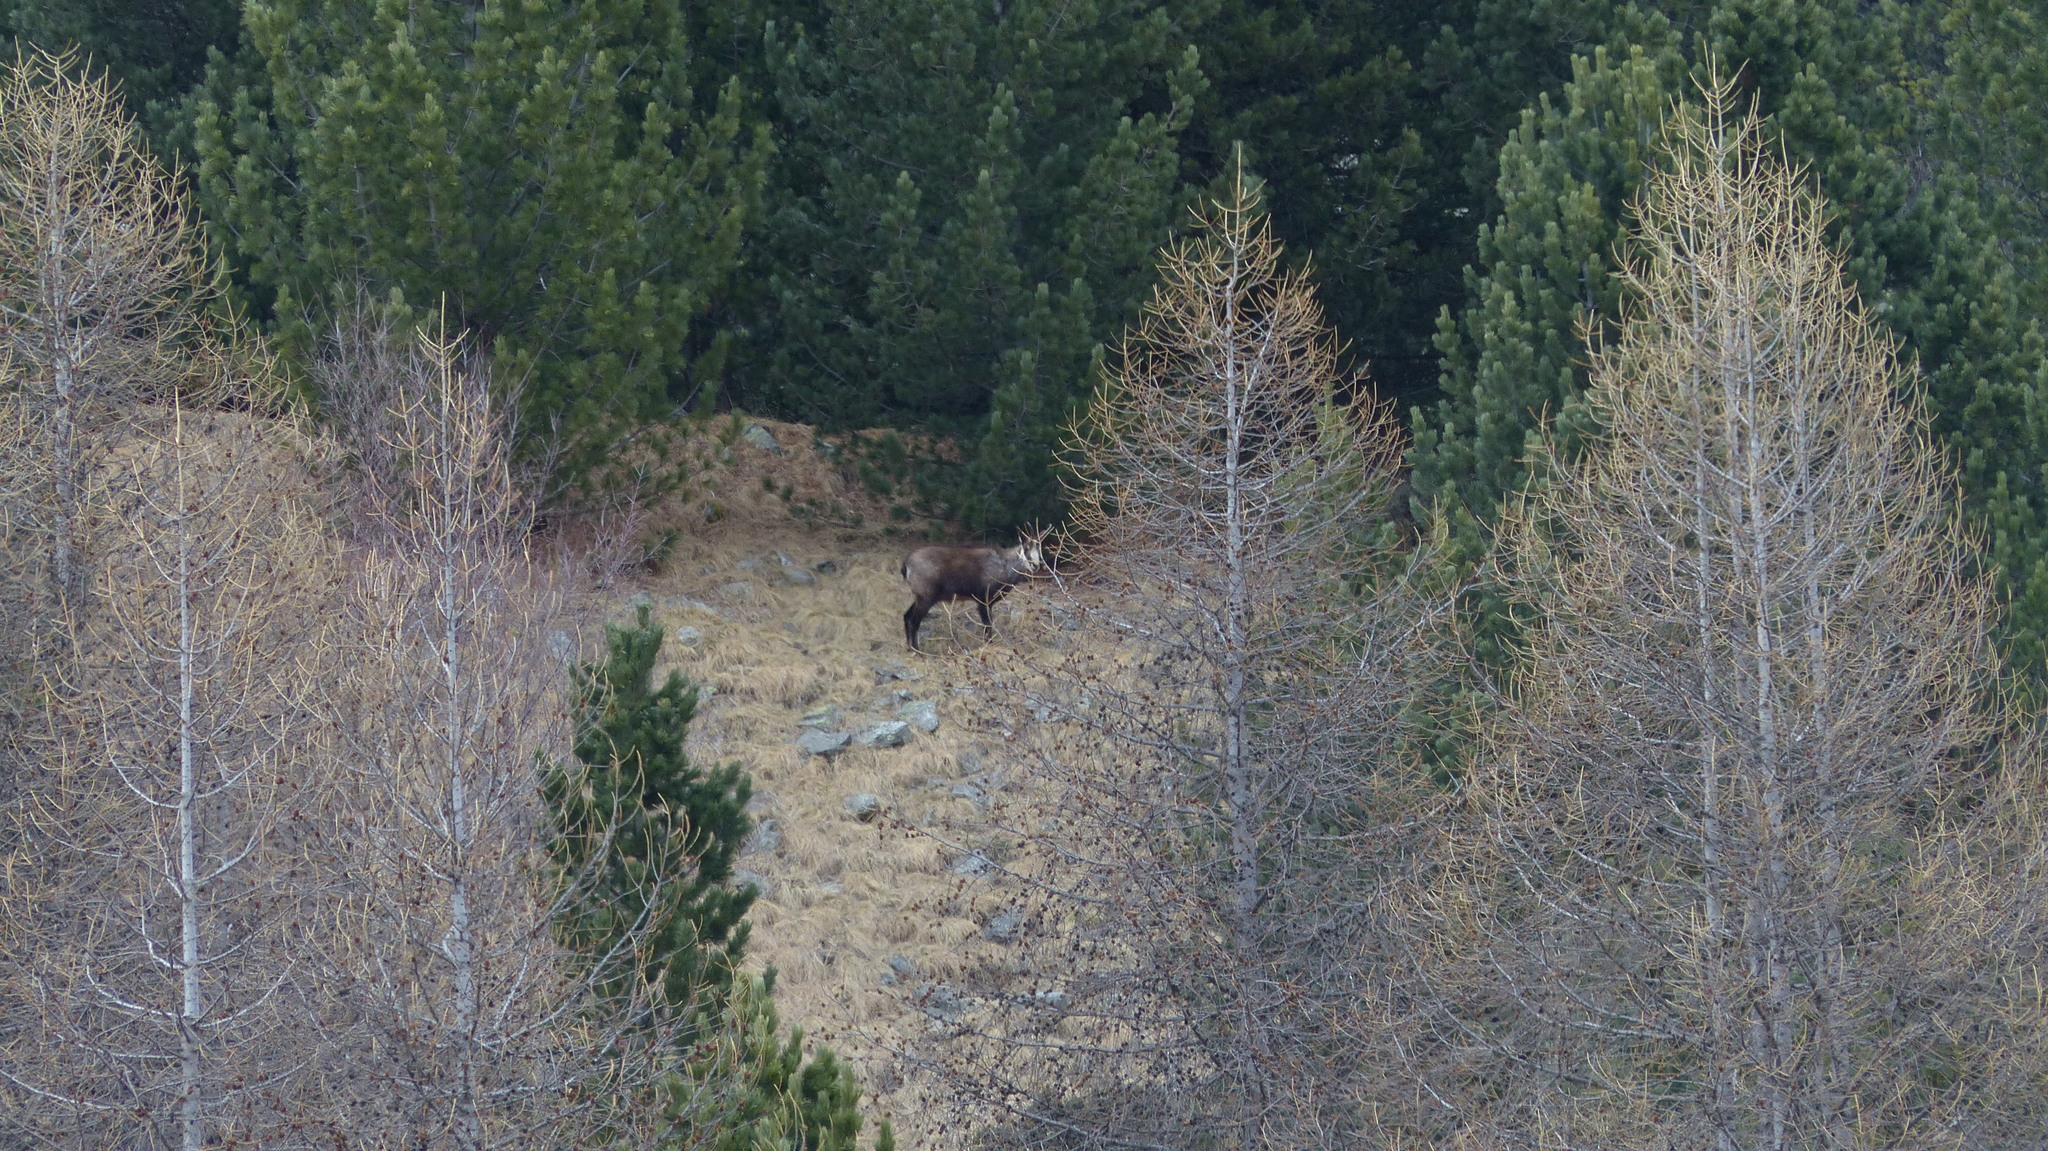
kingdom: Animalia
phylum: Chordata
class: Mammalia
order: Artiodactyla
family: Bovidae
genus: Rupicapra
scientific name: Rupicapra rupicapra
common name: Chamois
